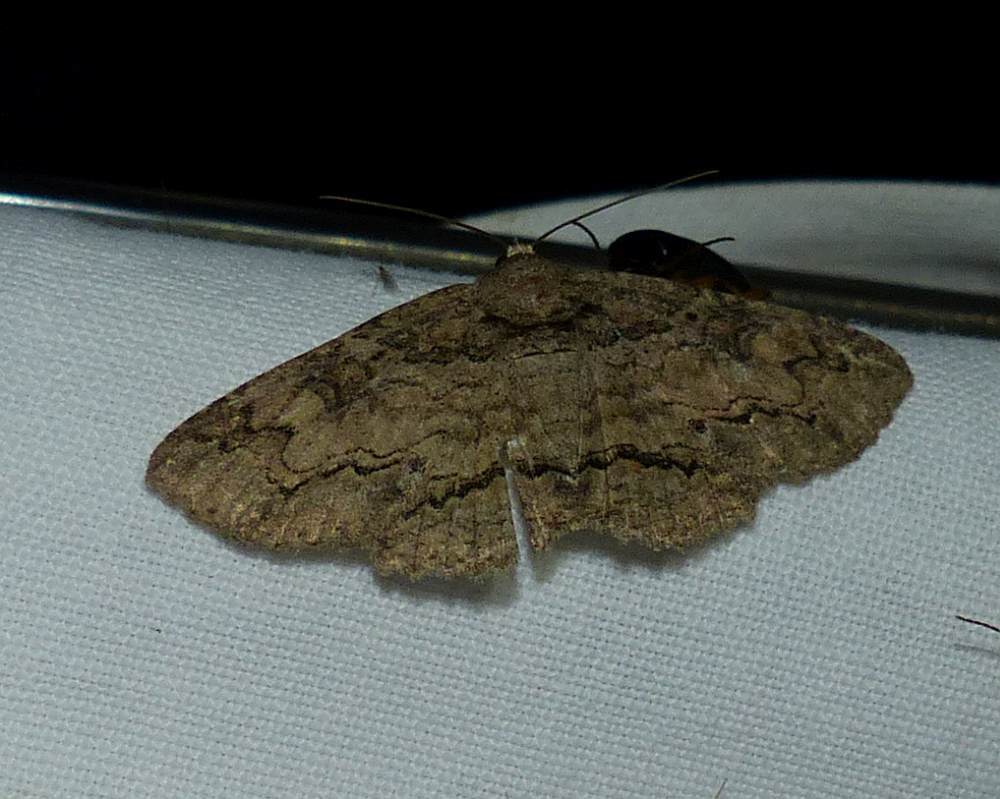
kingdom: Animalia
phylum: Arthropoda
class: Insecta
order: Lepidoptera
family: Erebidae
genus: Zale
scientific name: Zale galbanata
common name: Maple zale
